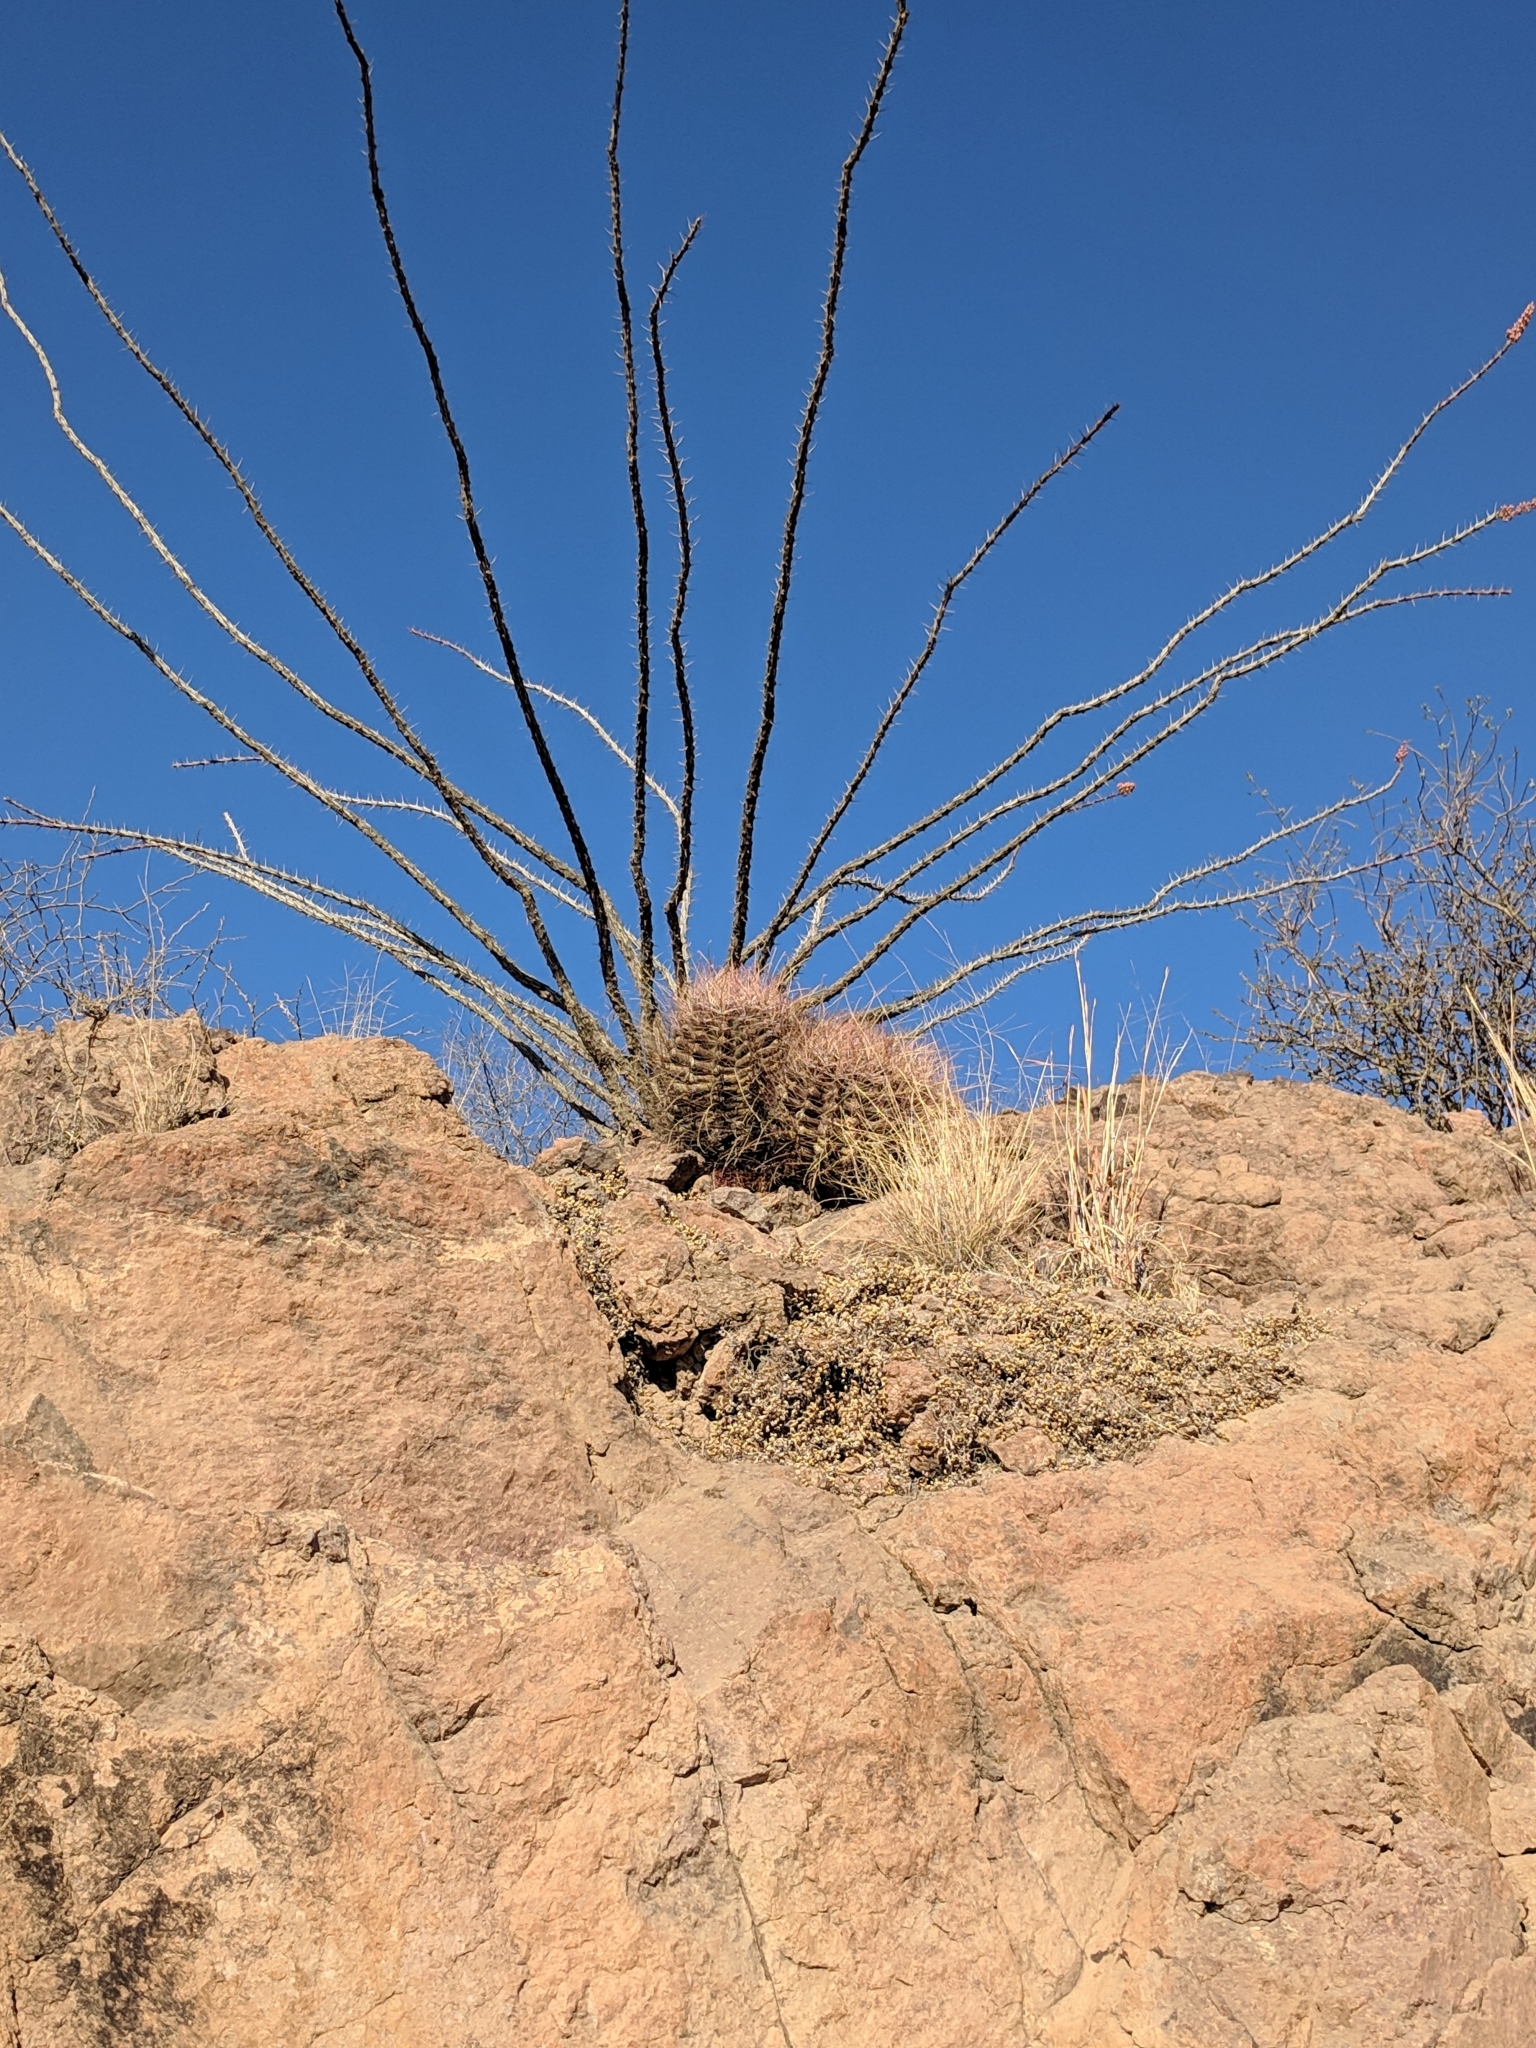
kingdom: Plantae
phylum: Tracheophyta
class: Magnoliopsida
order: Caryophyllales
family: Cactaceae
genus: Bisnaga
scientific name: Bisnaga hamatacantha
